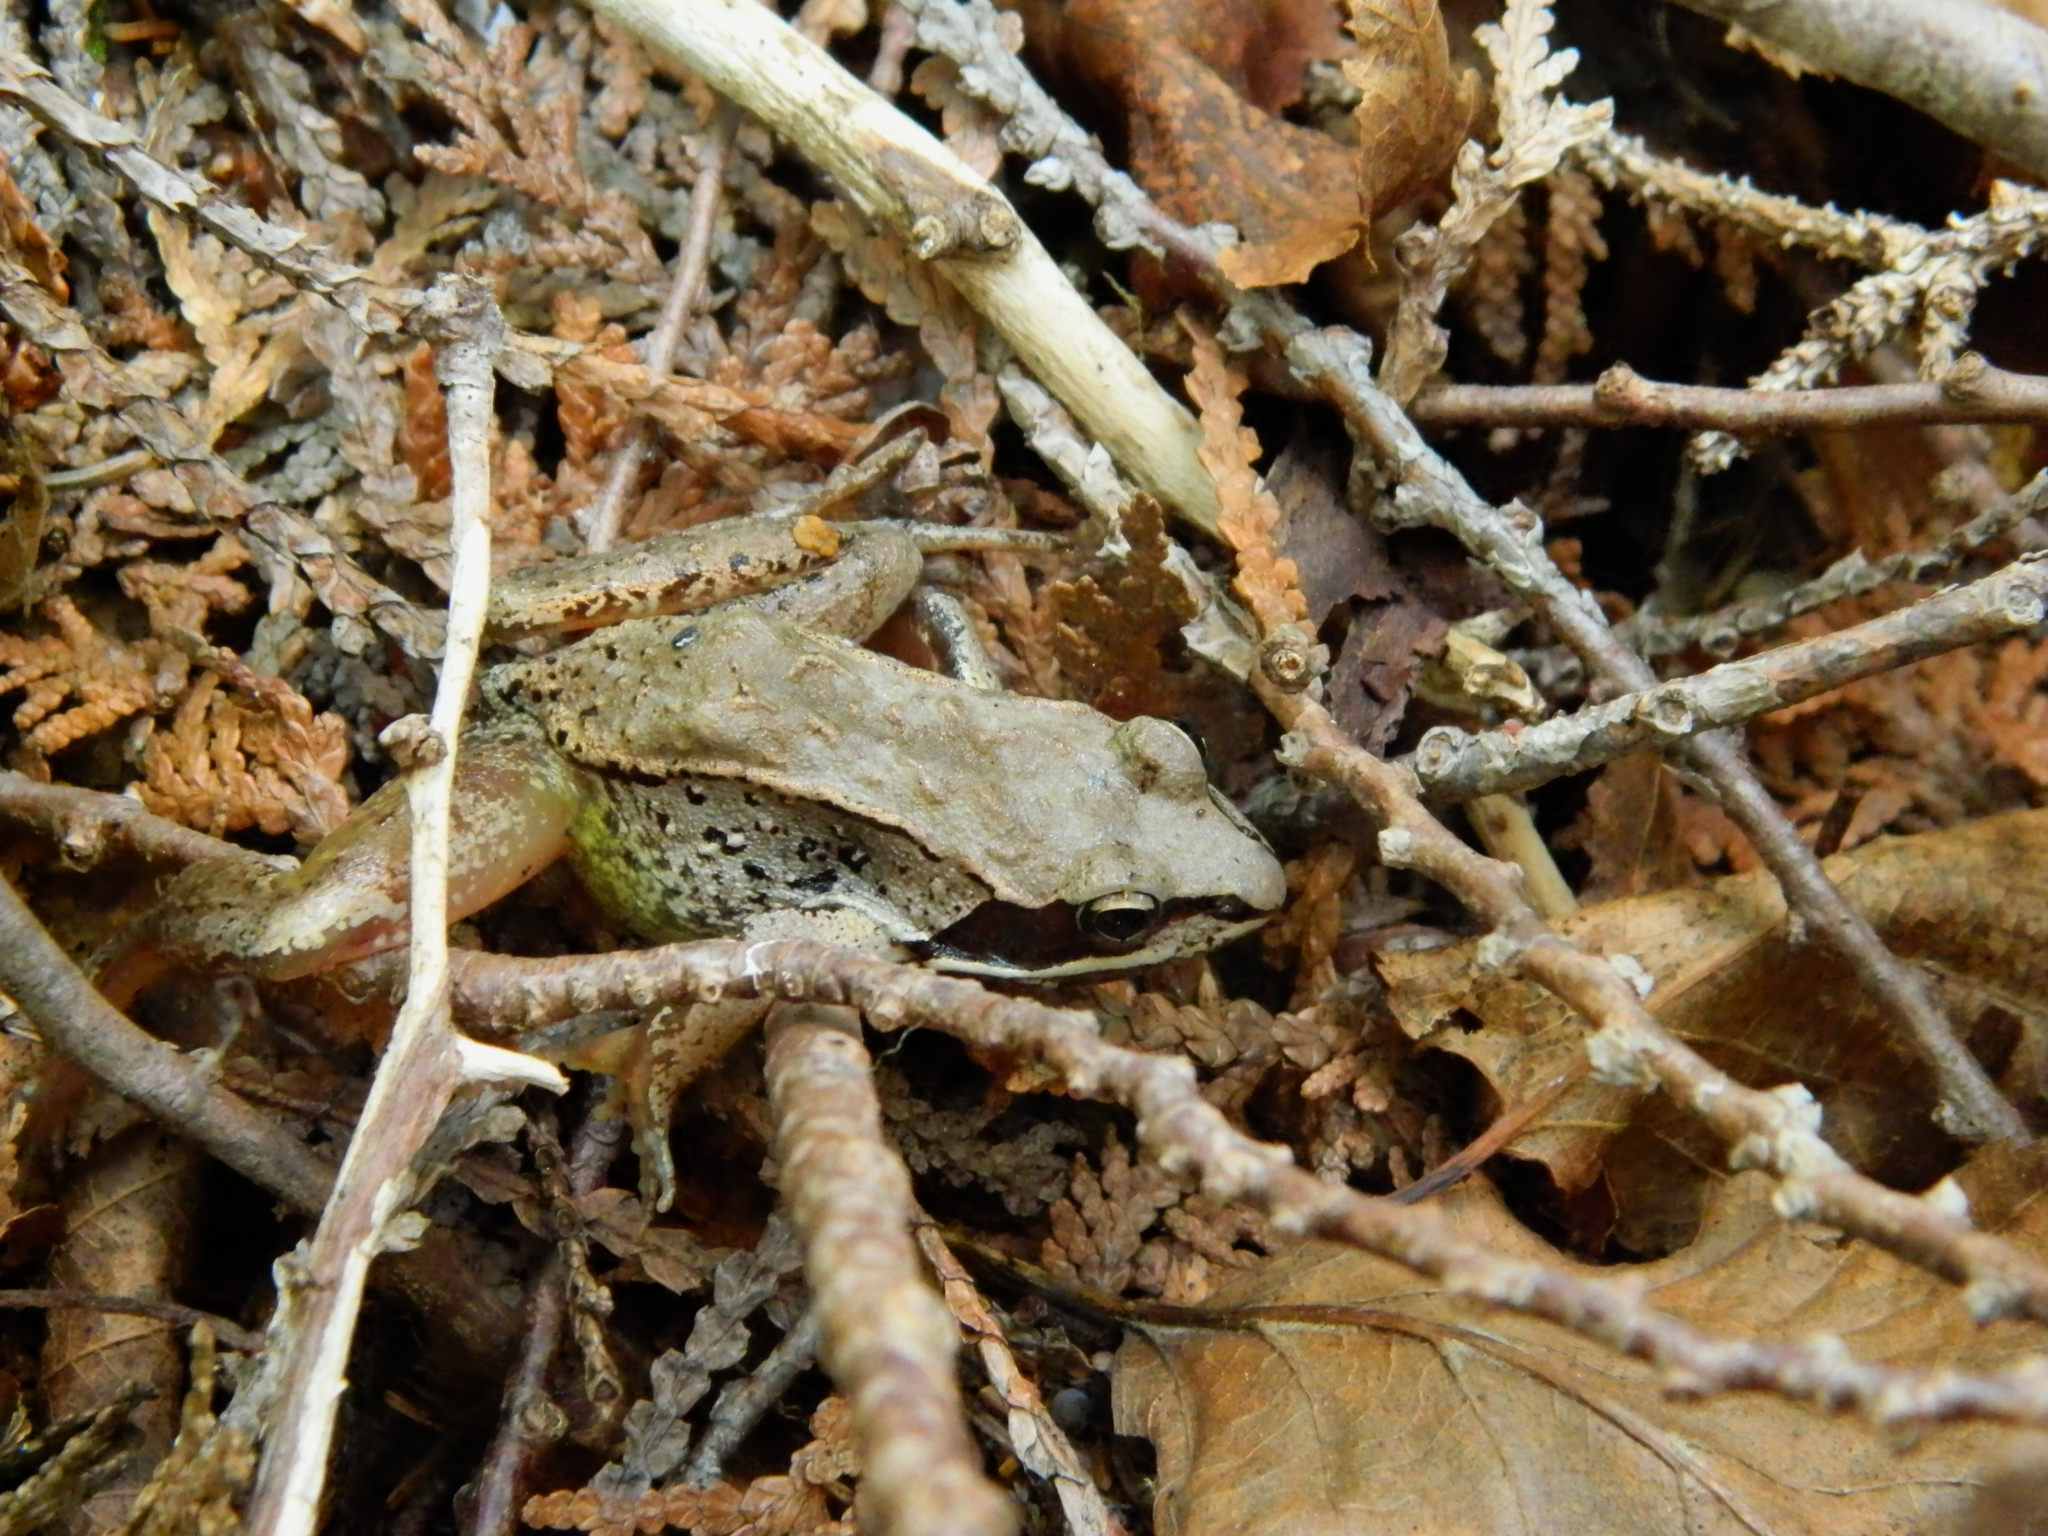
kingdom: Animalia
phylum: Chordata
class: Amphibia
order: Anura
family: Ranidae
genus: Lithobates
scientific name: Lithobates sylvaticus
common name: Wood frog
